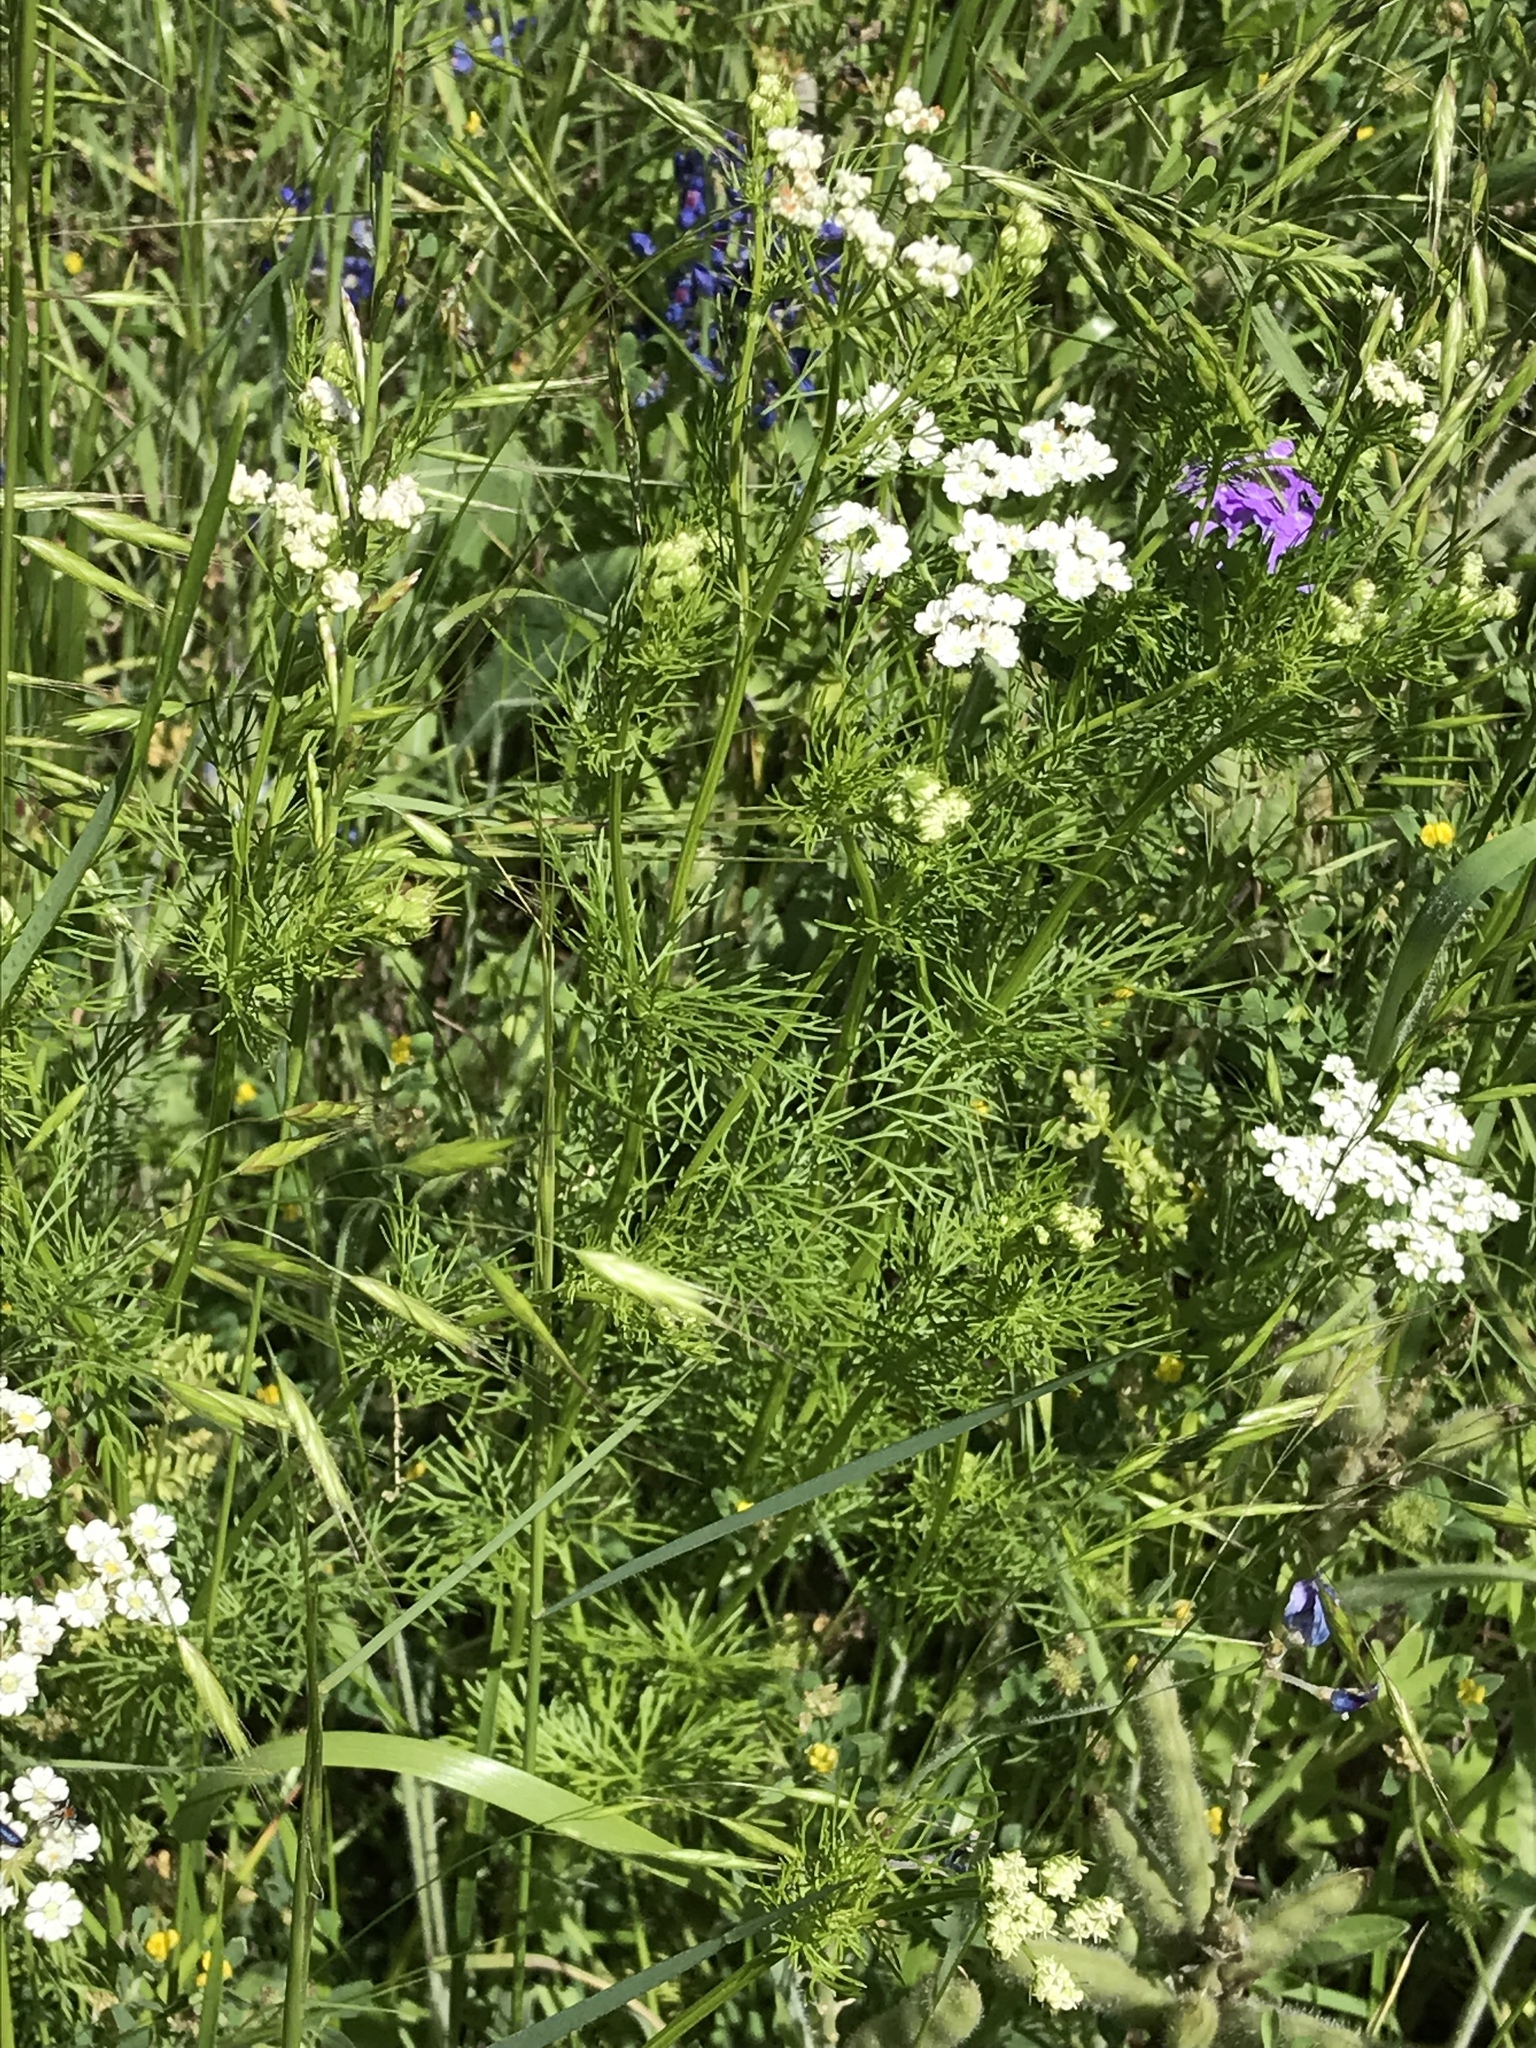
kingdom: Plantae
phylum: Tracheophyta
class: Magnoliopsida
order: Apiales
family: Apiaceae
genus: Atrema
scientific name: Atrema americanum
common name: Prairie-bishop
